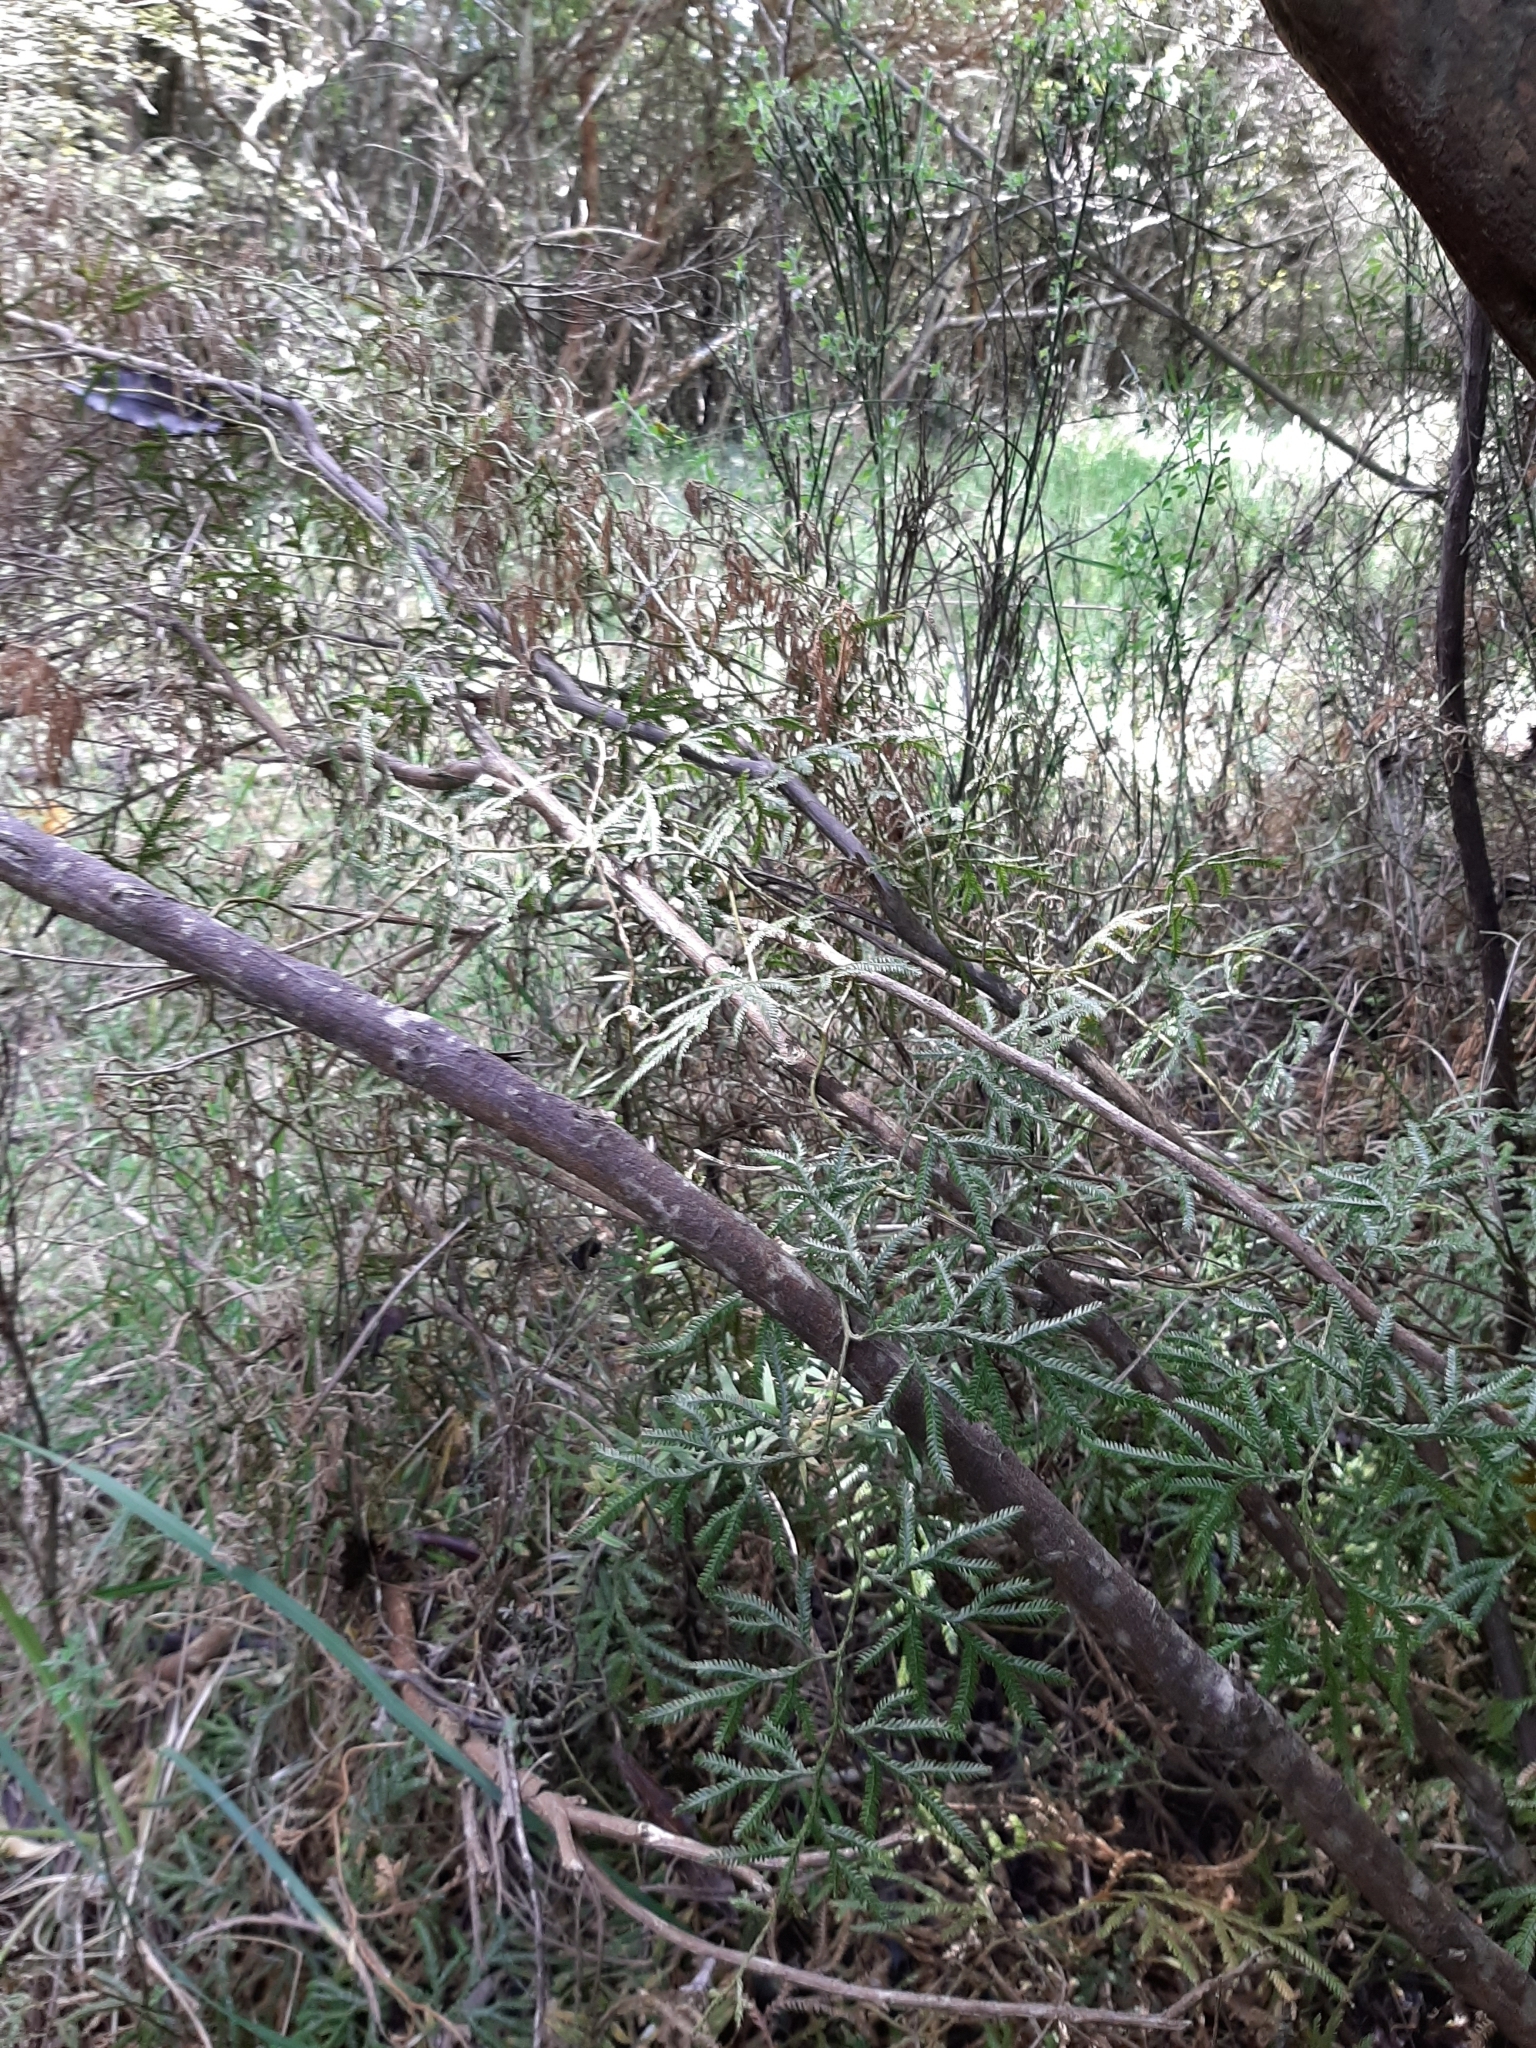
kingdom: Plantae
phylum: Tracheophyta
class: Lycopodiopsida
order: Lycopodiales
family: Lycopodiaceae
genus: Lycopodium
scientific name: Lycopodium volubile
